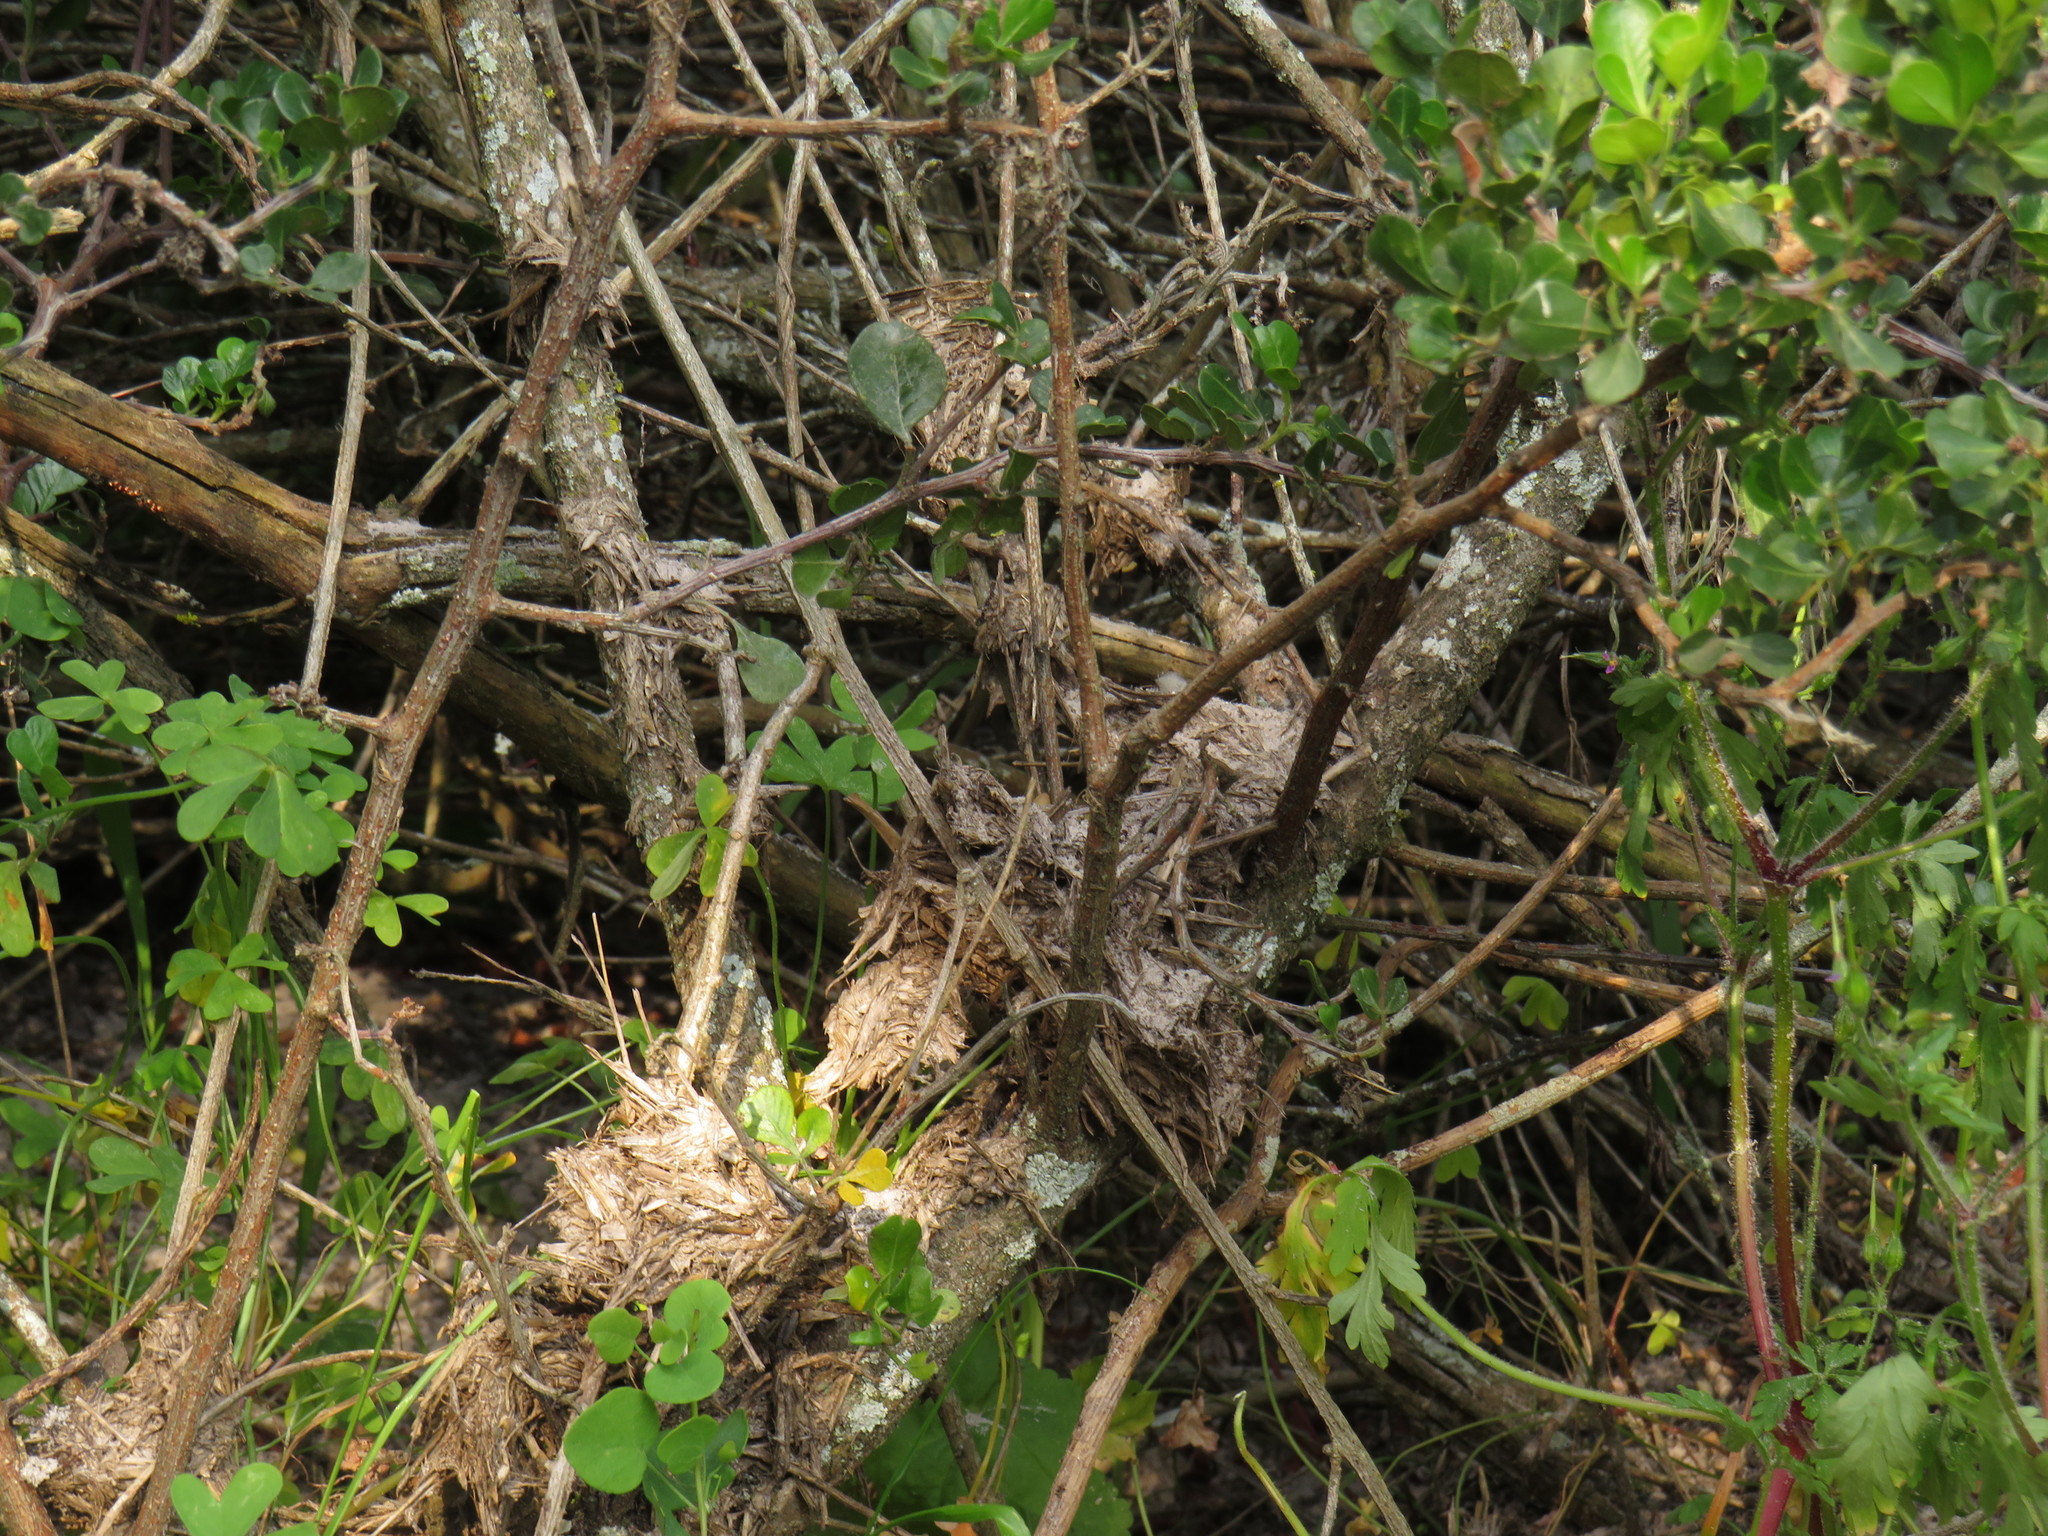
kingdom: Animalia
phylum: Chordata
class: Mammalia
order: Artiodactyla
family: Hippopotamidae
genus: Hippopotamus
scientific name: Hippopotamus amphibius
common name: Common hippopotamus
